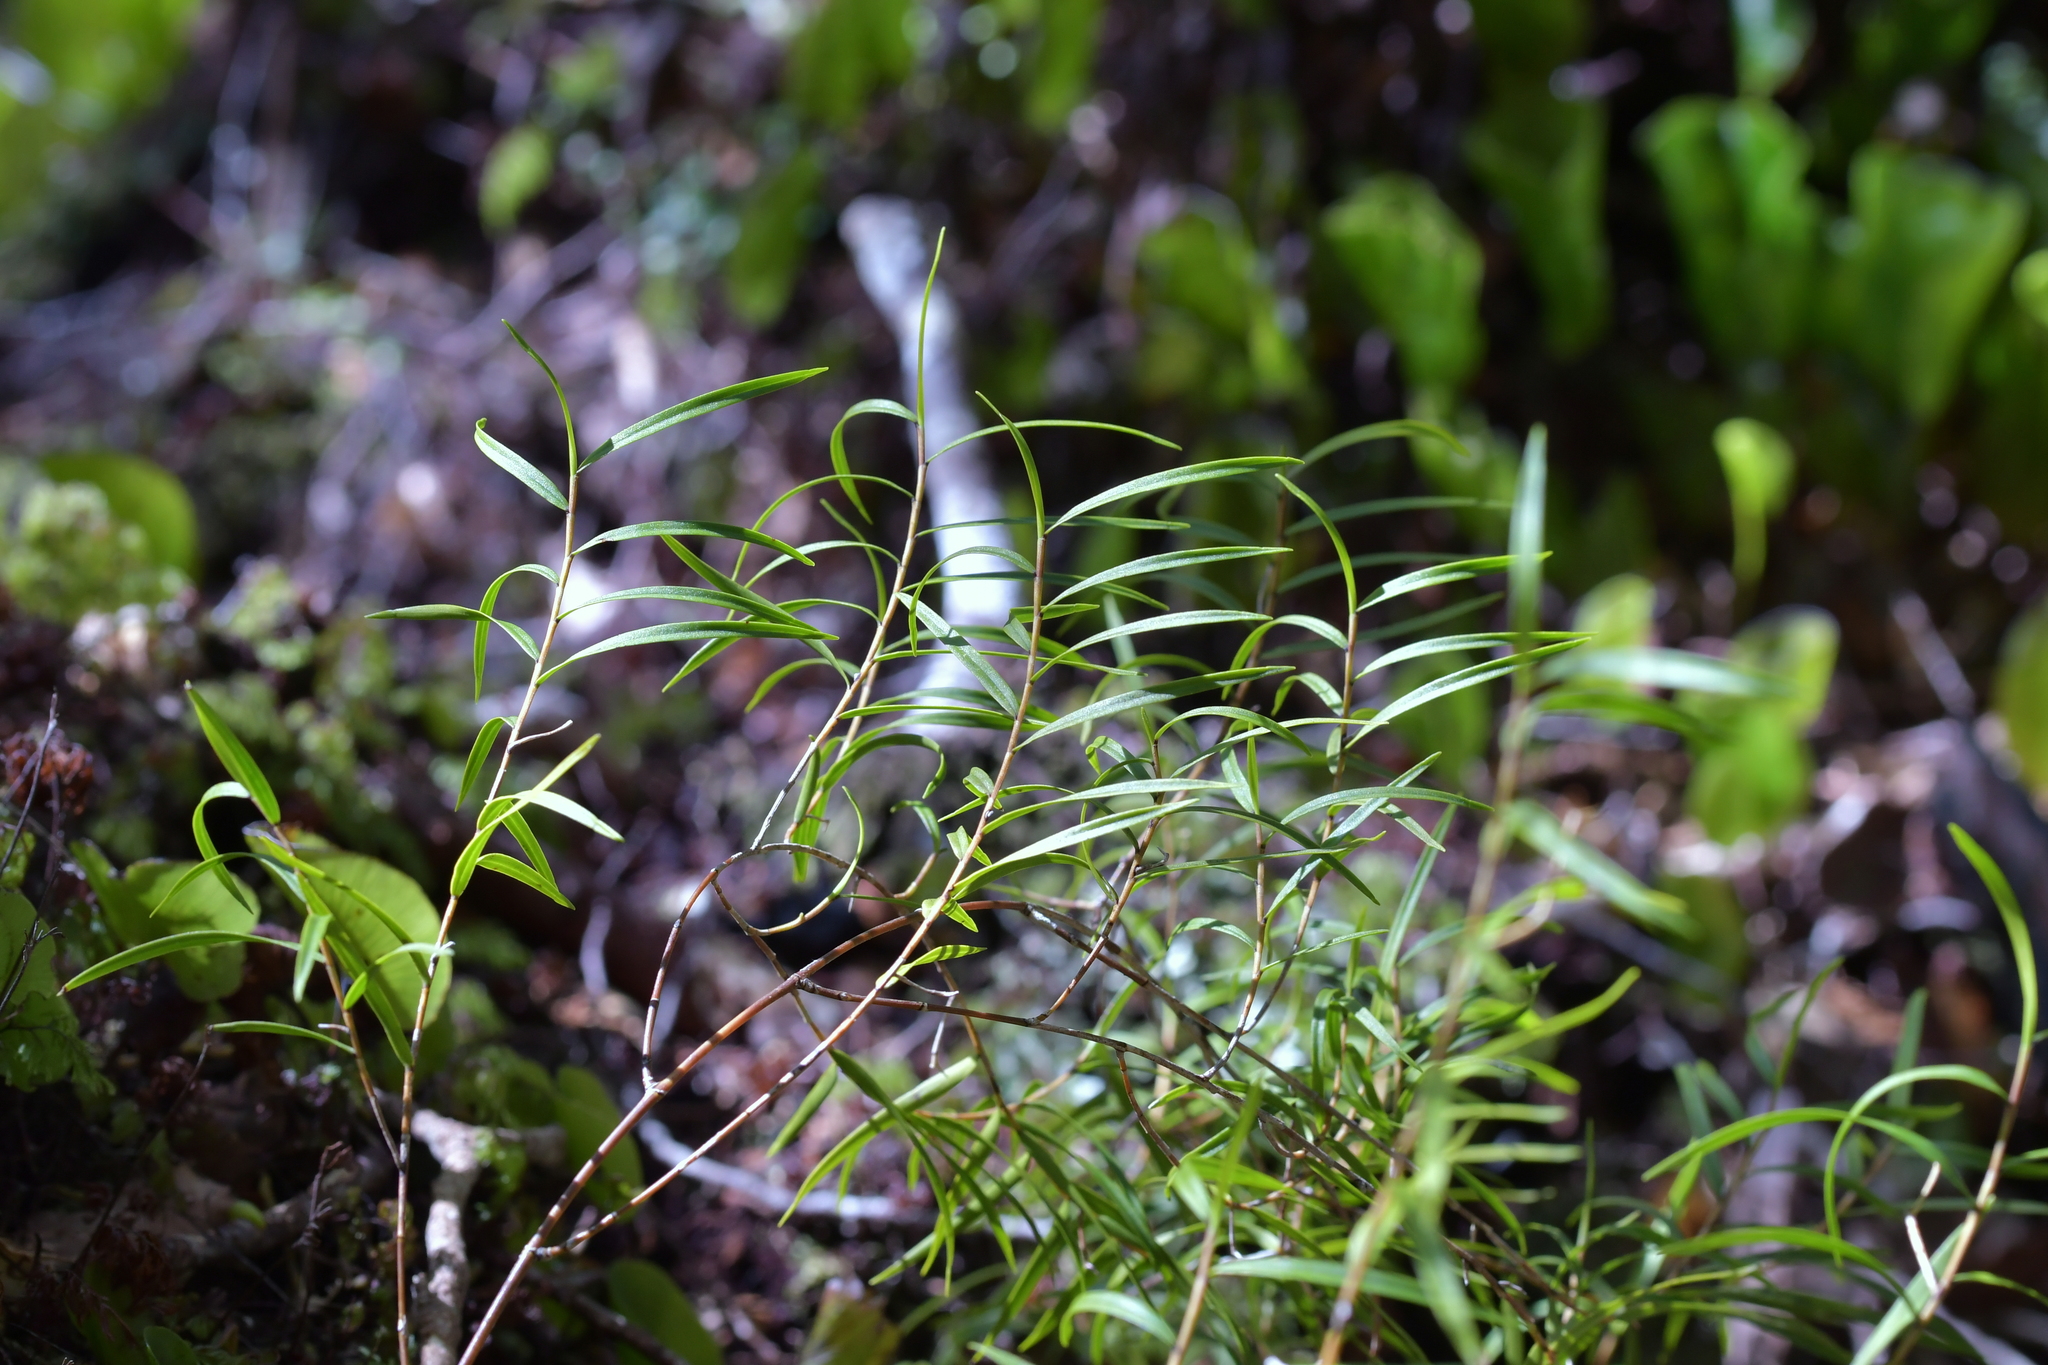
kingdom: Plantae
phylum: Tracheophyta
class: Liliopsida
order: Asparagales
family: Orchidaceae
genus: Dendrobium
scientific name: Dendrobium cunninghamii
